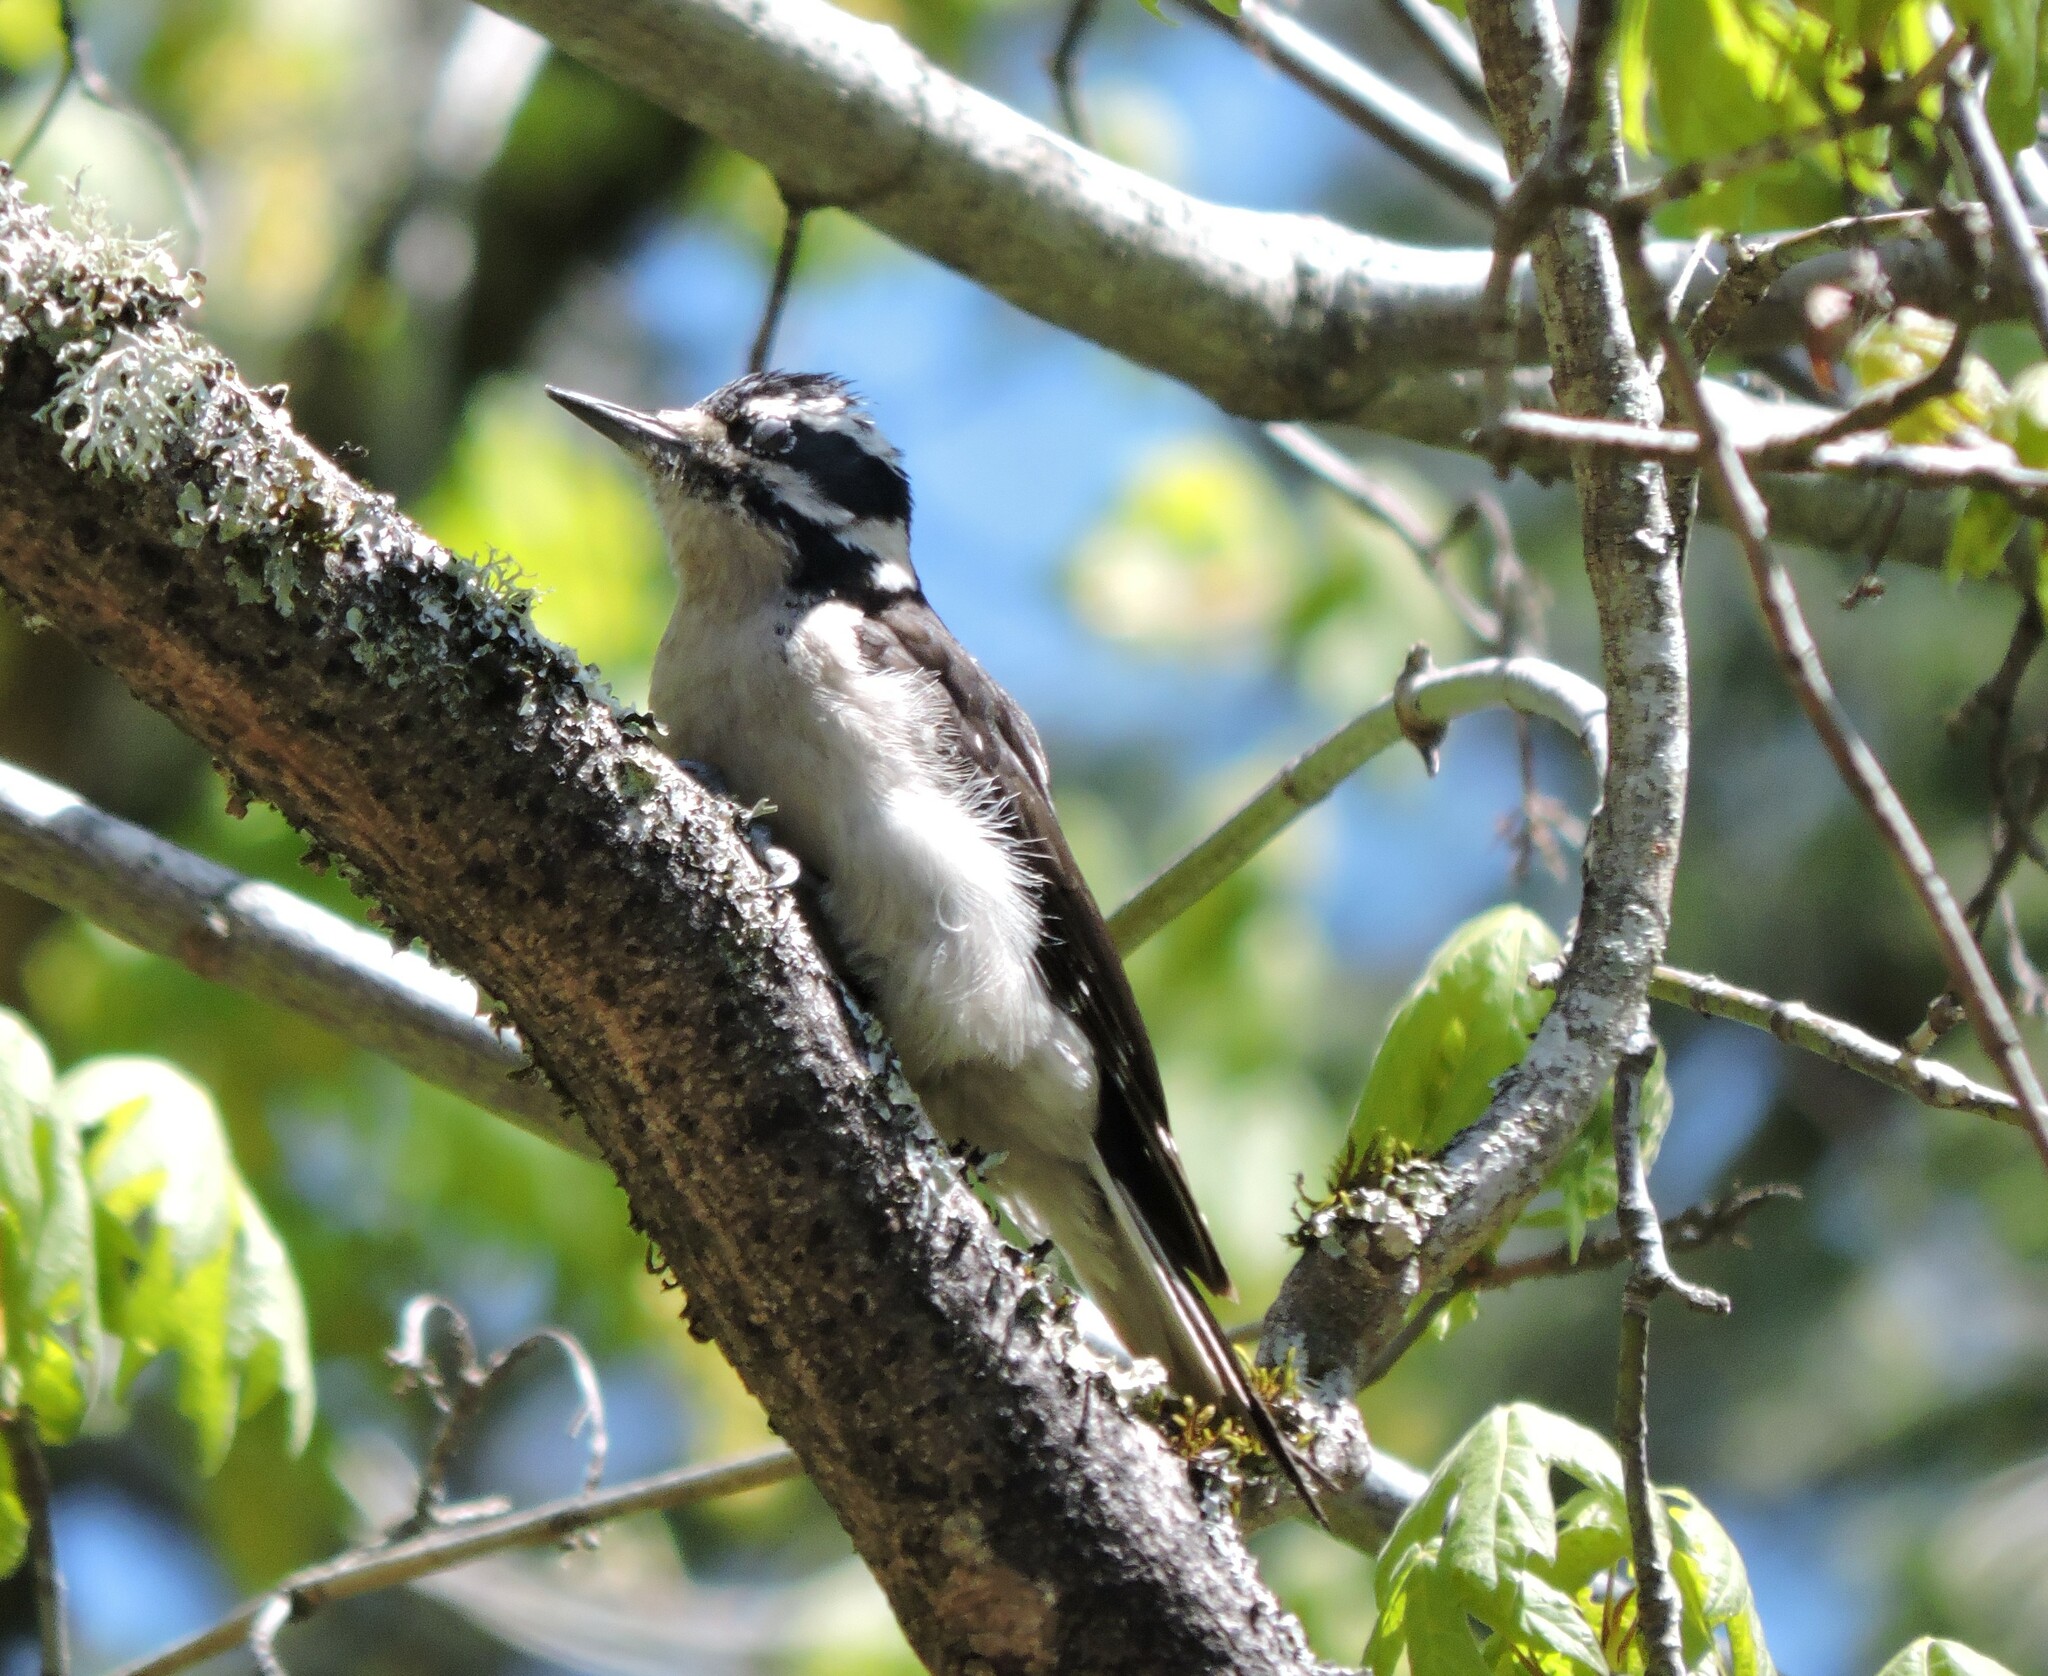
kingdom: Animalia
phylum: Chordata
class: Aves
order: Piciformes
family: Picidae
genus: Leuconotopicus
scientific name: Leuconotopicus villosus
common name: Hairy woodpecker
